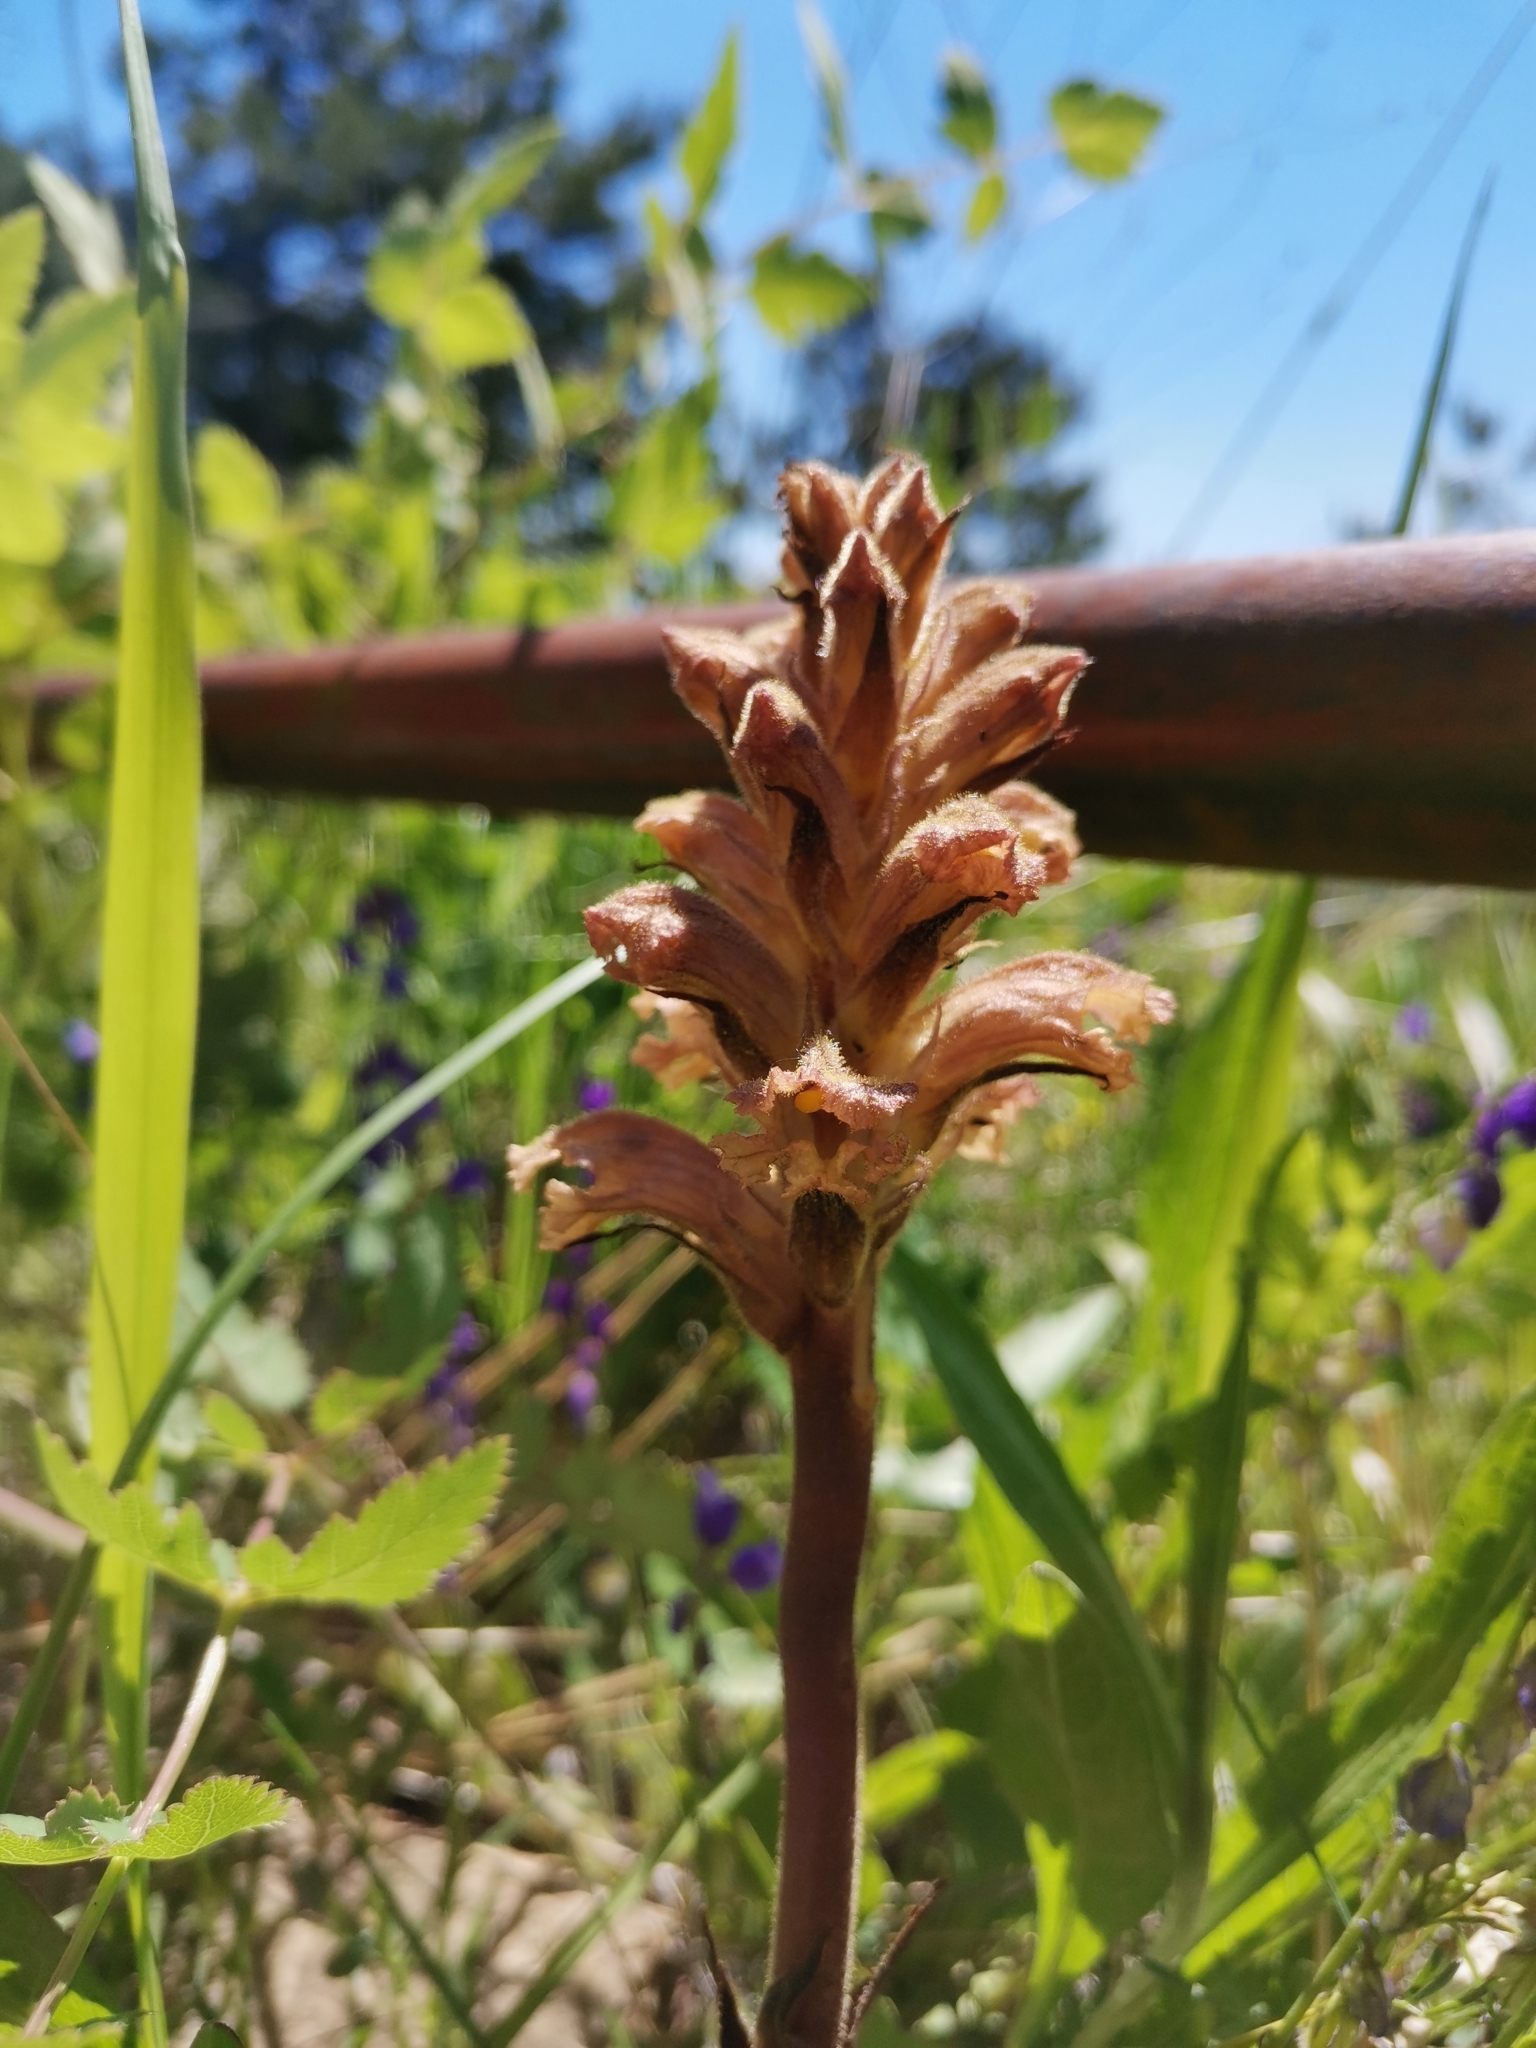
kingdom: Plantae
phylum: Tracheophyta
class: Magnoliopsida
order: Lamiales
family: Orobanchaceae
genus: Orobanche
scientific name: Orobanche lutea
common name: Yellow broomrape
